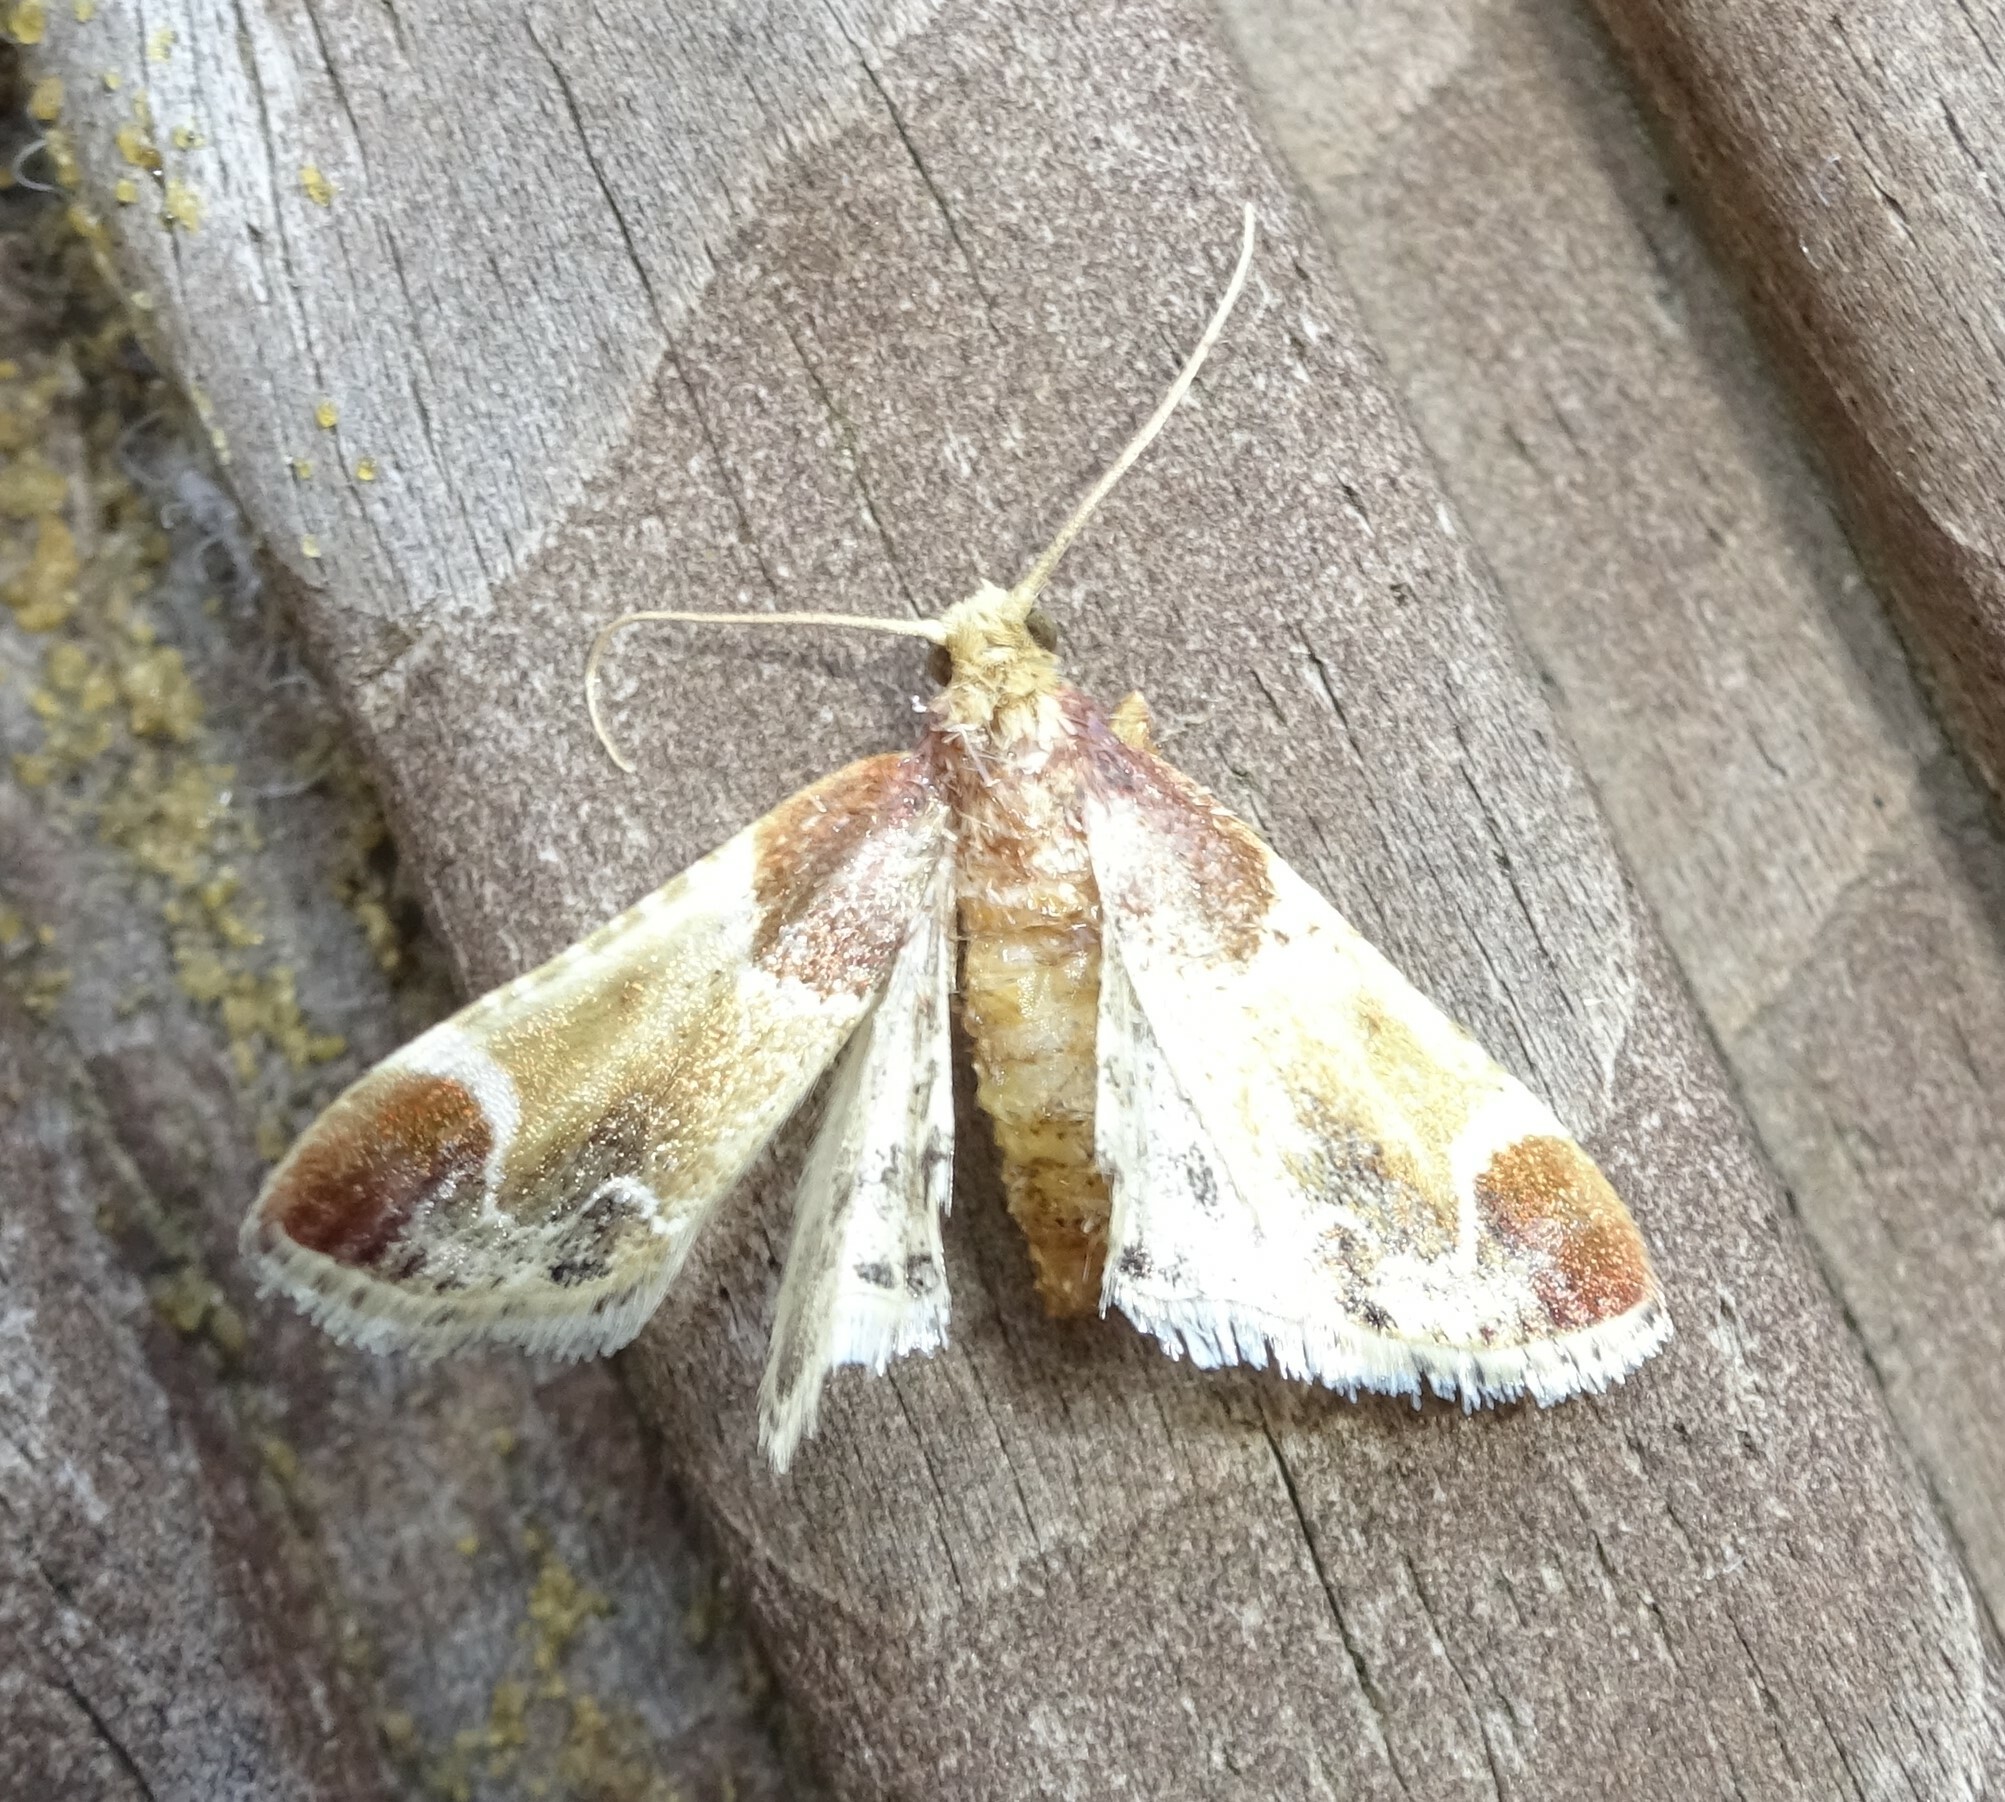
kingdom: Animalia
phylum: Arthropoda
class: Insecta
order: Lepidoptera
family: Pyralidae
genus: Pyralis
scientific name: Pyralis farinalis
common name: Meal moth
